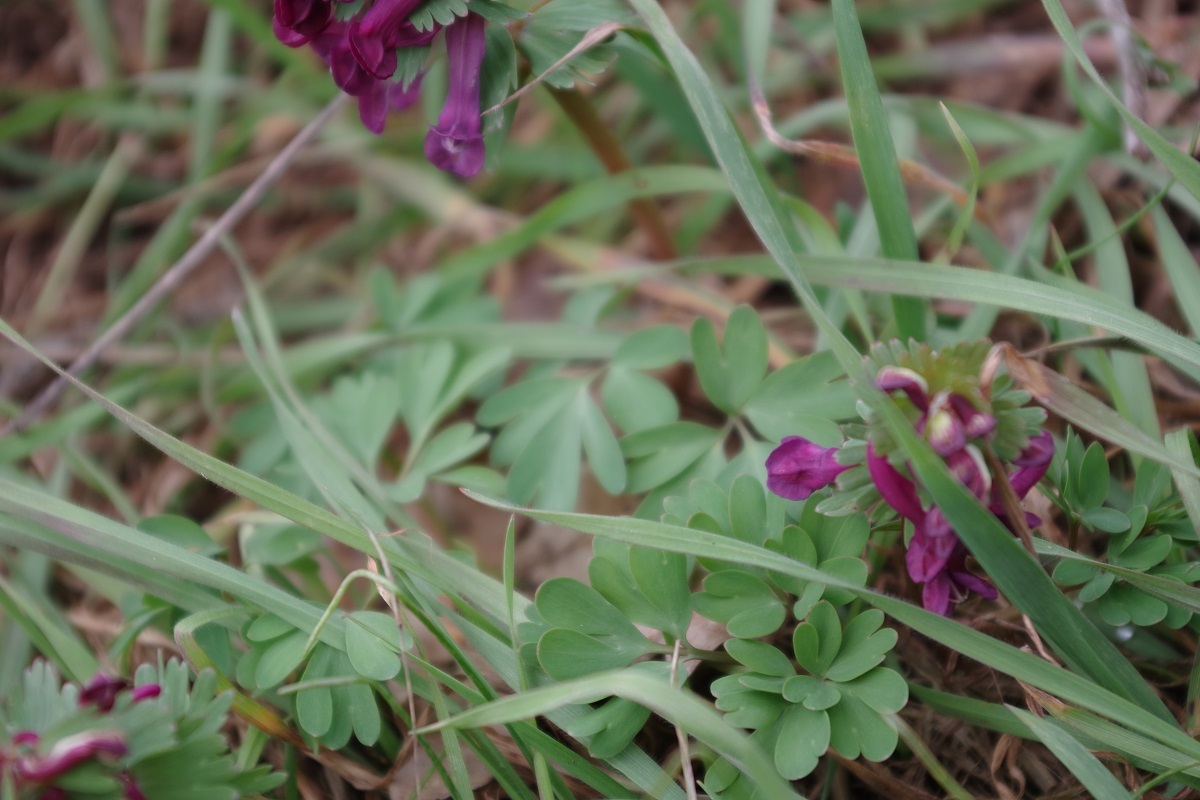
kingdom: Plantae
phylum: Tracheophyta
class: Magnoliopsida
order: Ranunculales
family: Papaveraceae
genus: Corydalis
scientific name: Corydalis solida
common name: Bird-in-a-bush
